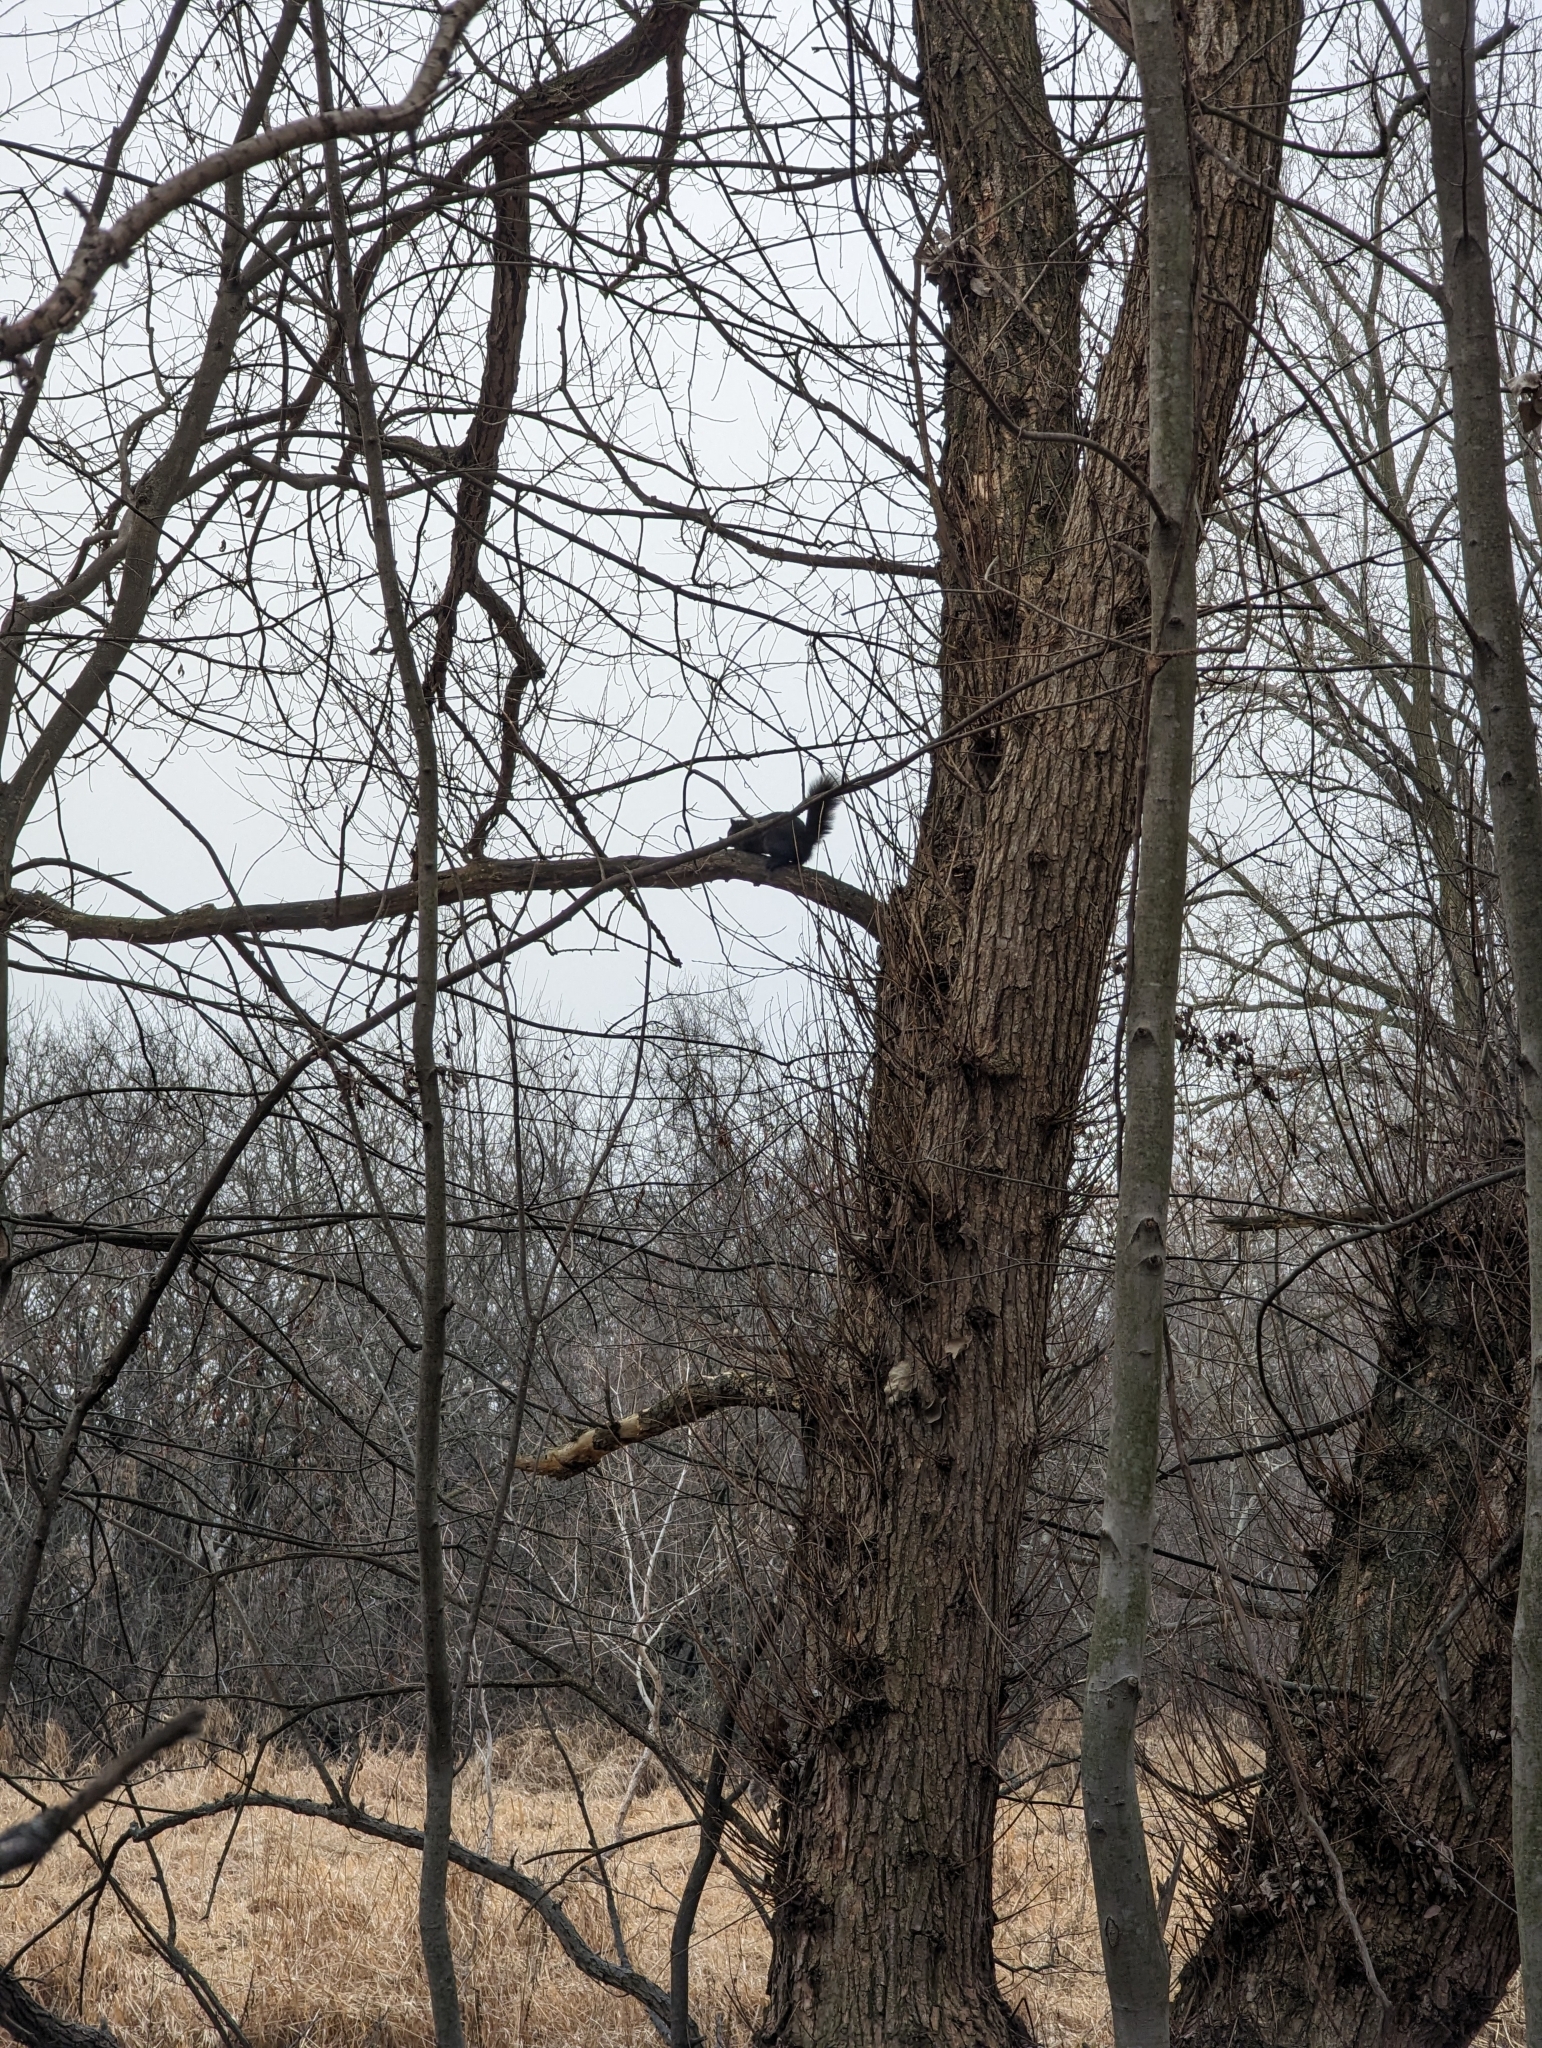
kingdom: Animalia
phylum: Chordata
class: Mammalia
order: Rodentia
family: Sciuridae
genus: Sciurus
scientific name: Sciurus carolinensis
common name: Eastern gray squirrel
